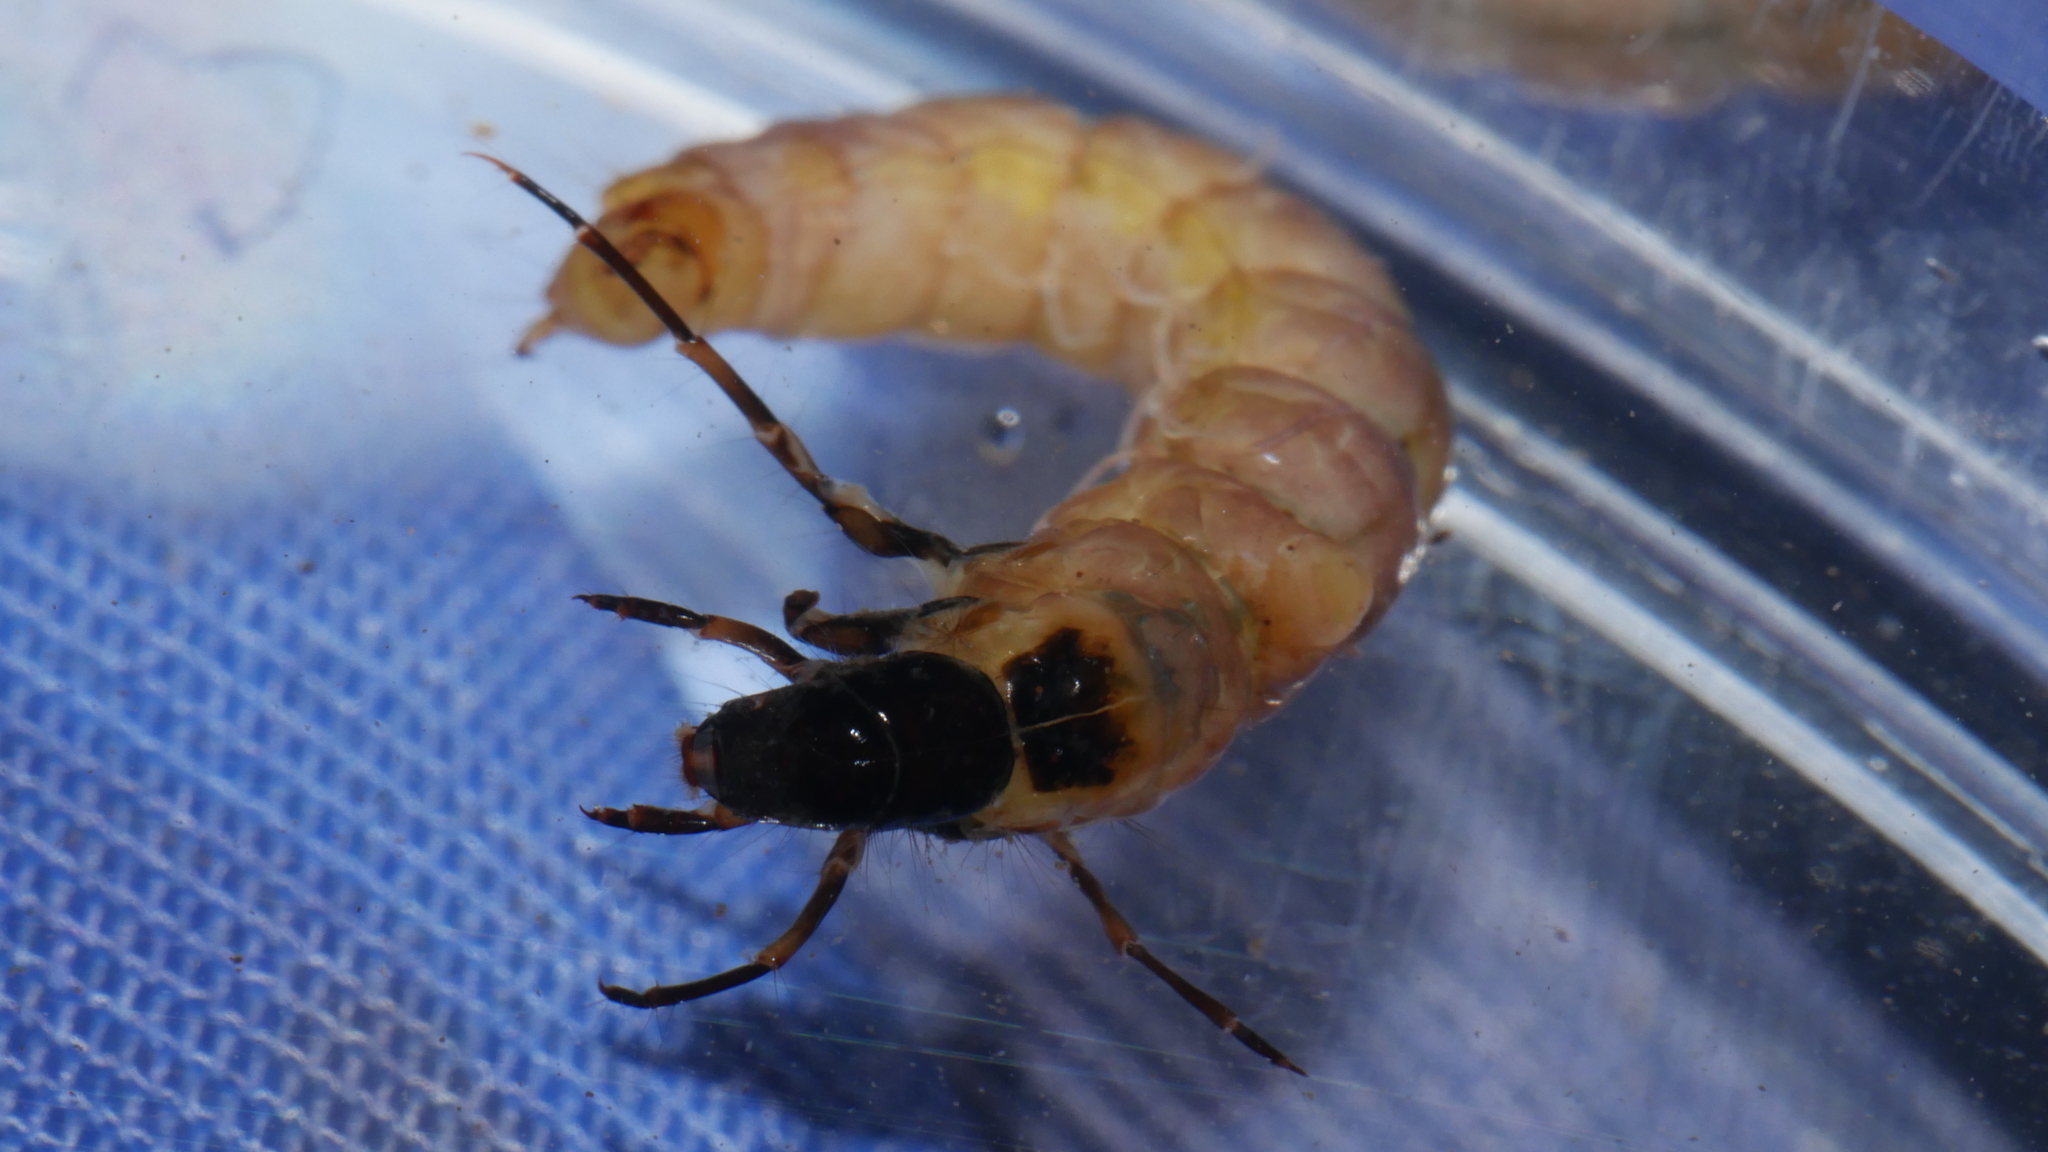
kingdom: Animalia
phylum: Arthropoda
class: Insecta
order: Trichoptera
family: Calamoceratidae
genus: Heteroplectron
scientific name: Heteroplectron americanum
